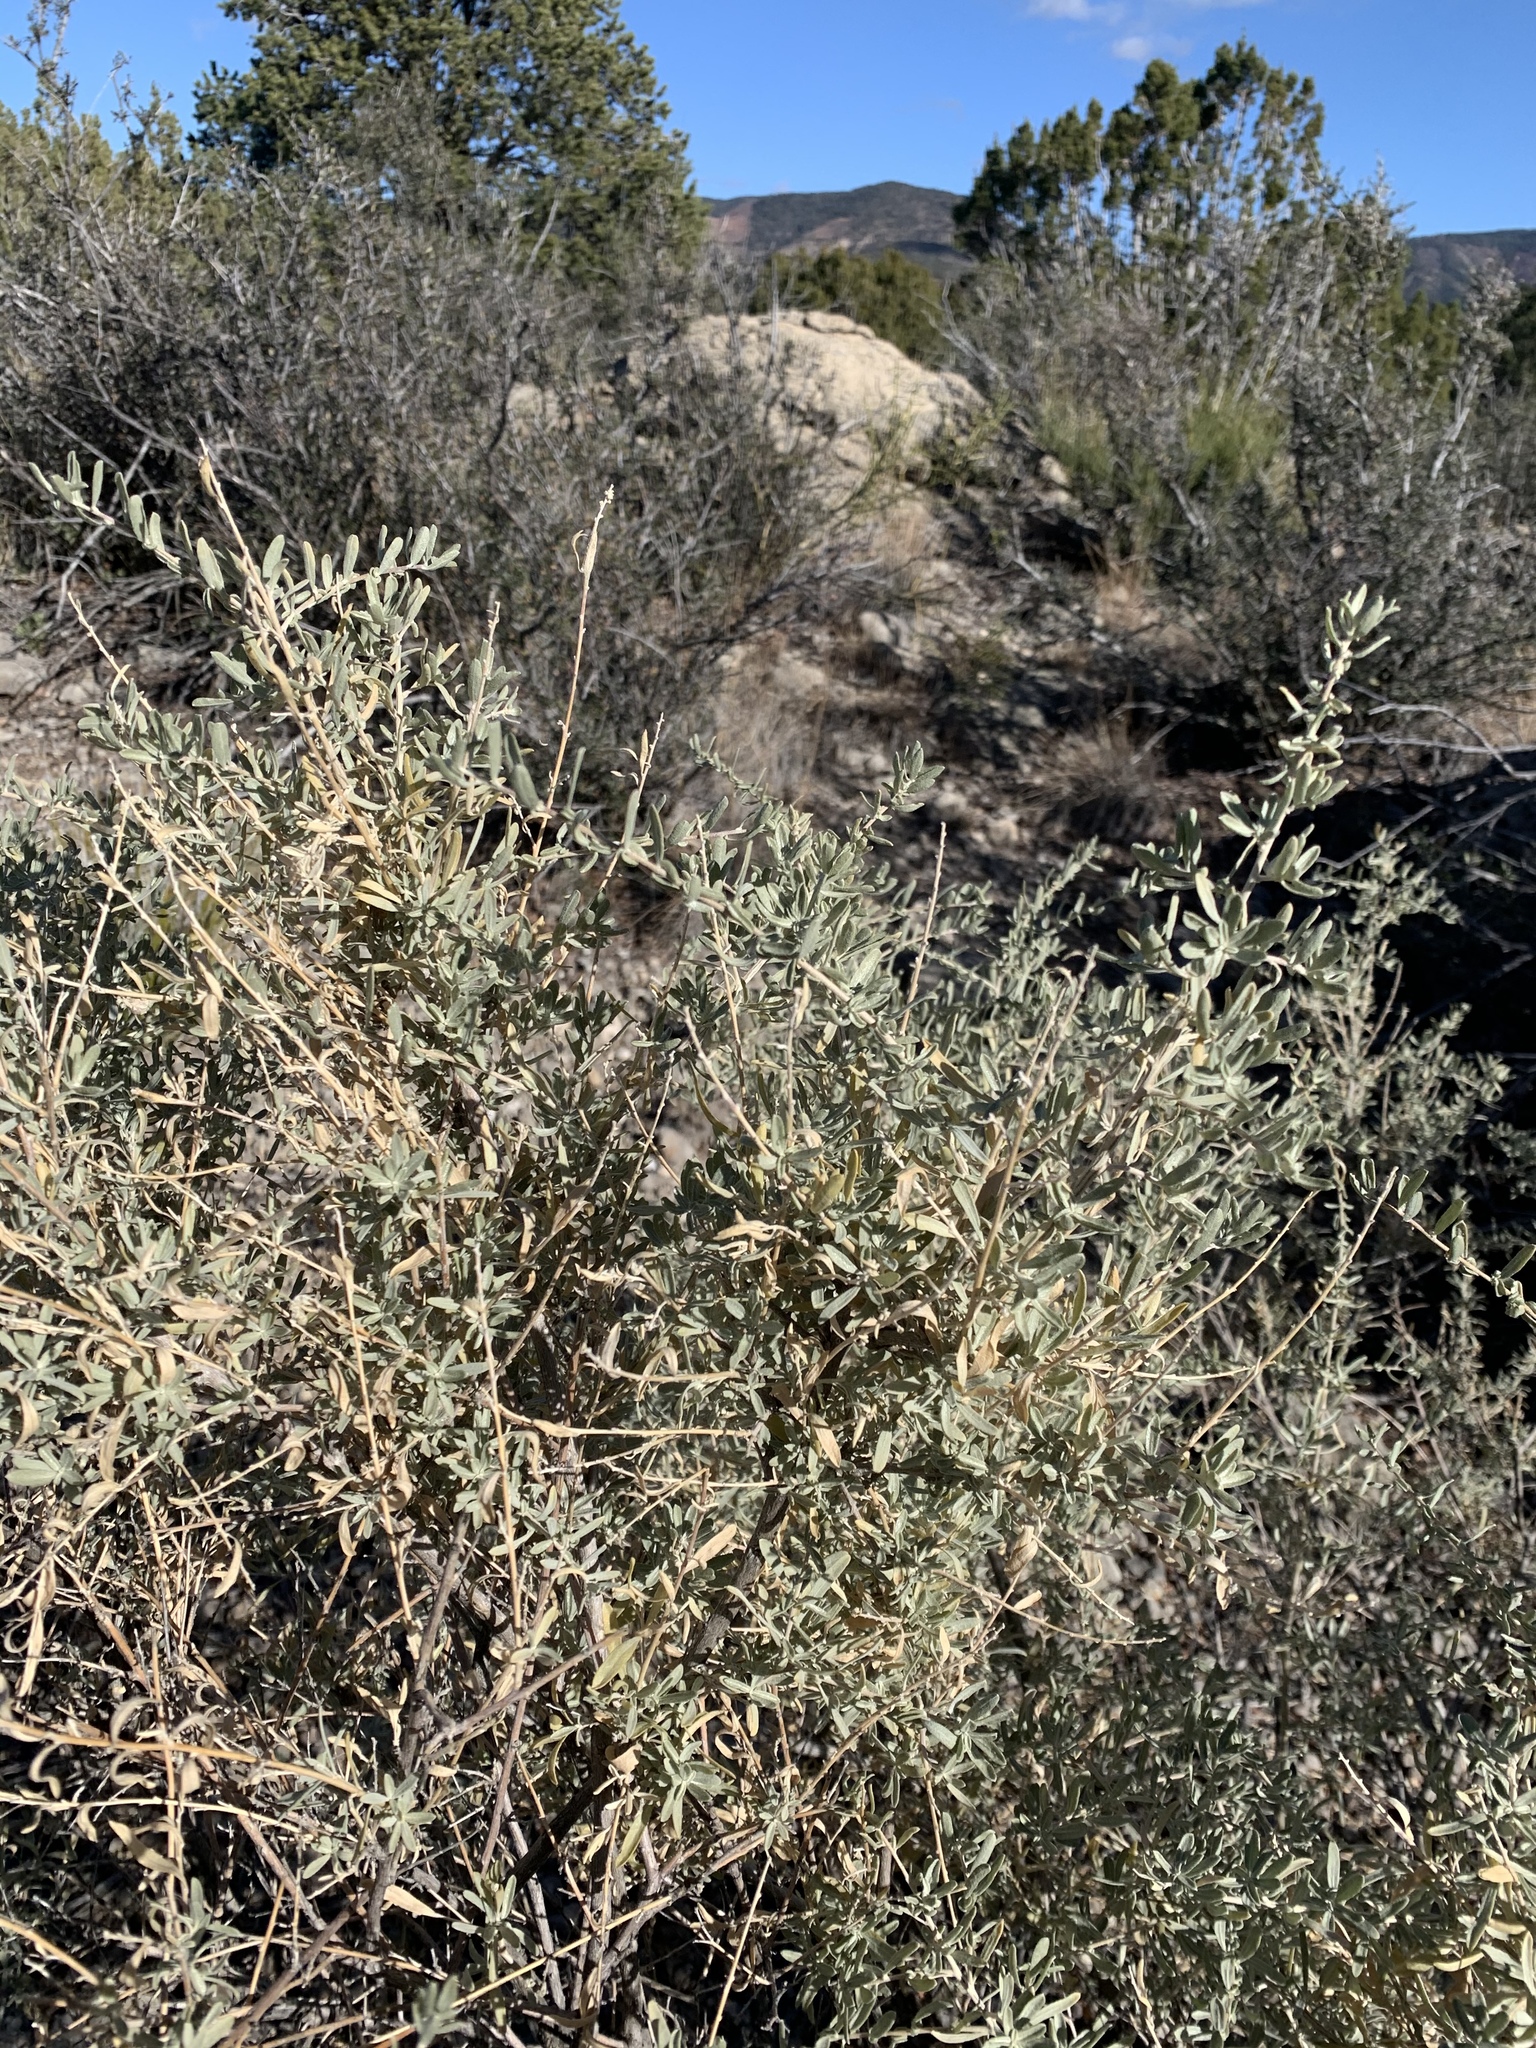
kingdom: Plantae
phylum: Tracheophyta
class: Magnoliopsida
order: Caryophyllales
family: Amaranthaceae
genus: Atriplex
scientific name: Atriplex canescens
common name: Four-wing saltbush
